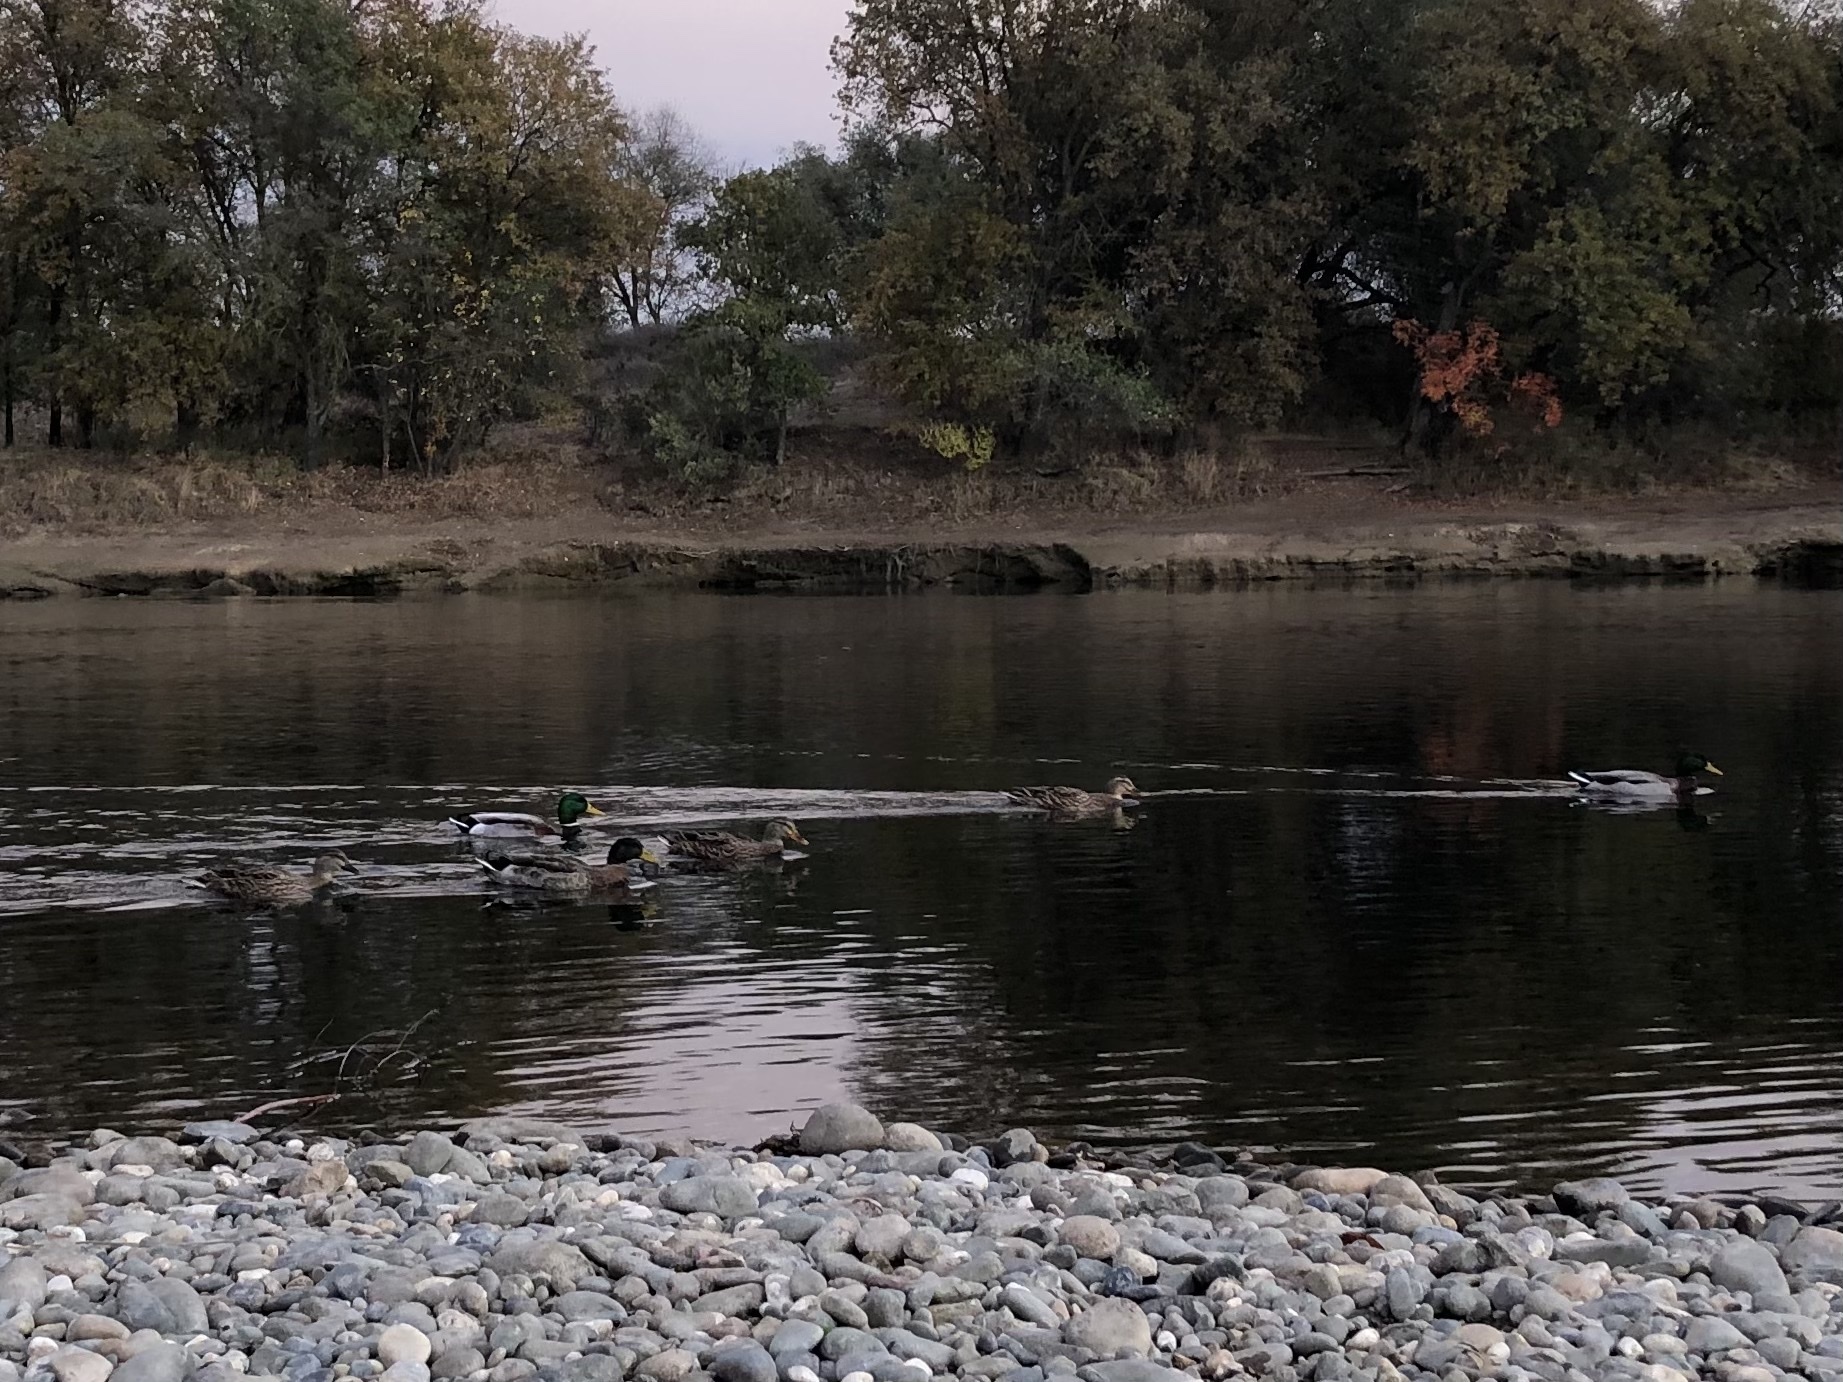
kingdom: Animalia
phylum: Chordata
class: Aves
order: Anseriformes
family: Anatidae
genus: Anas
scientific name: Anas platyrhynchos
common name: Mallard
